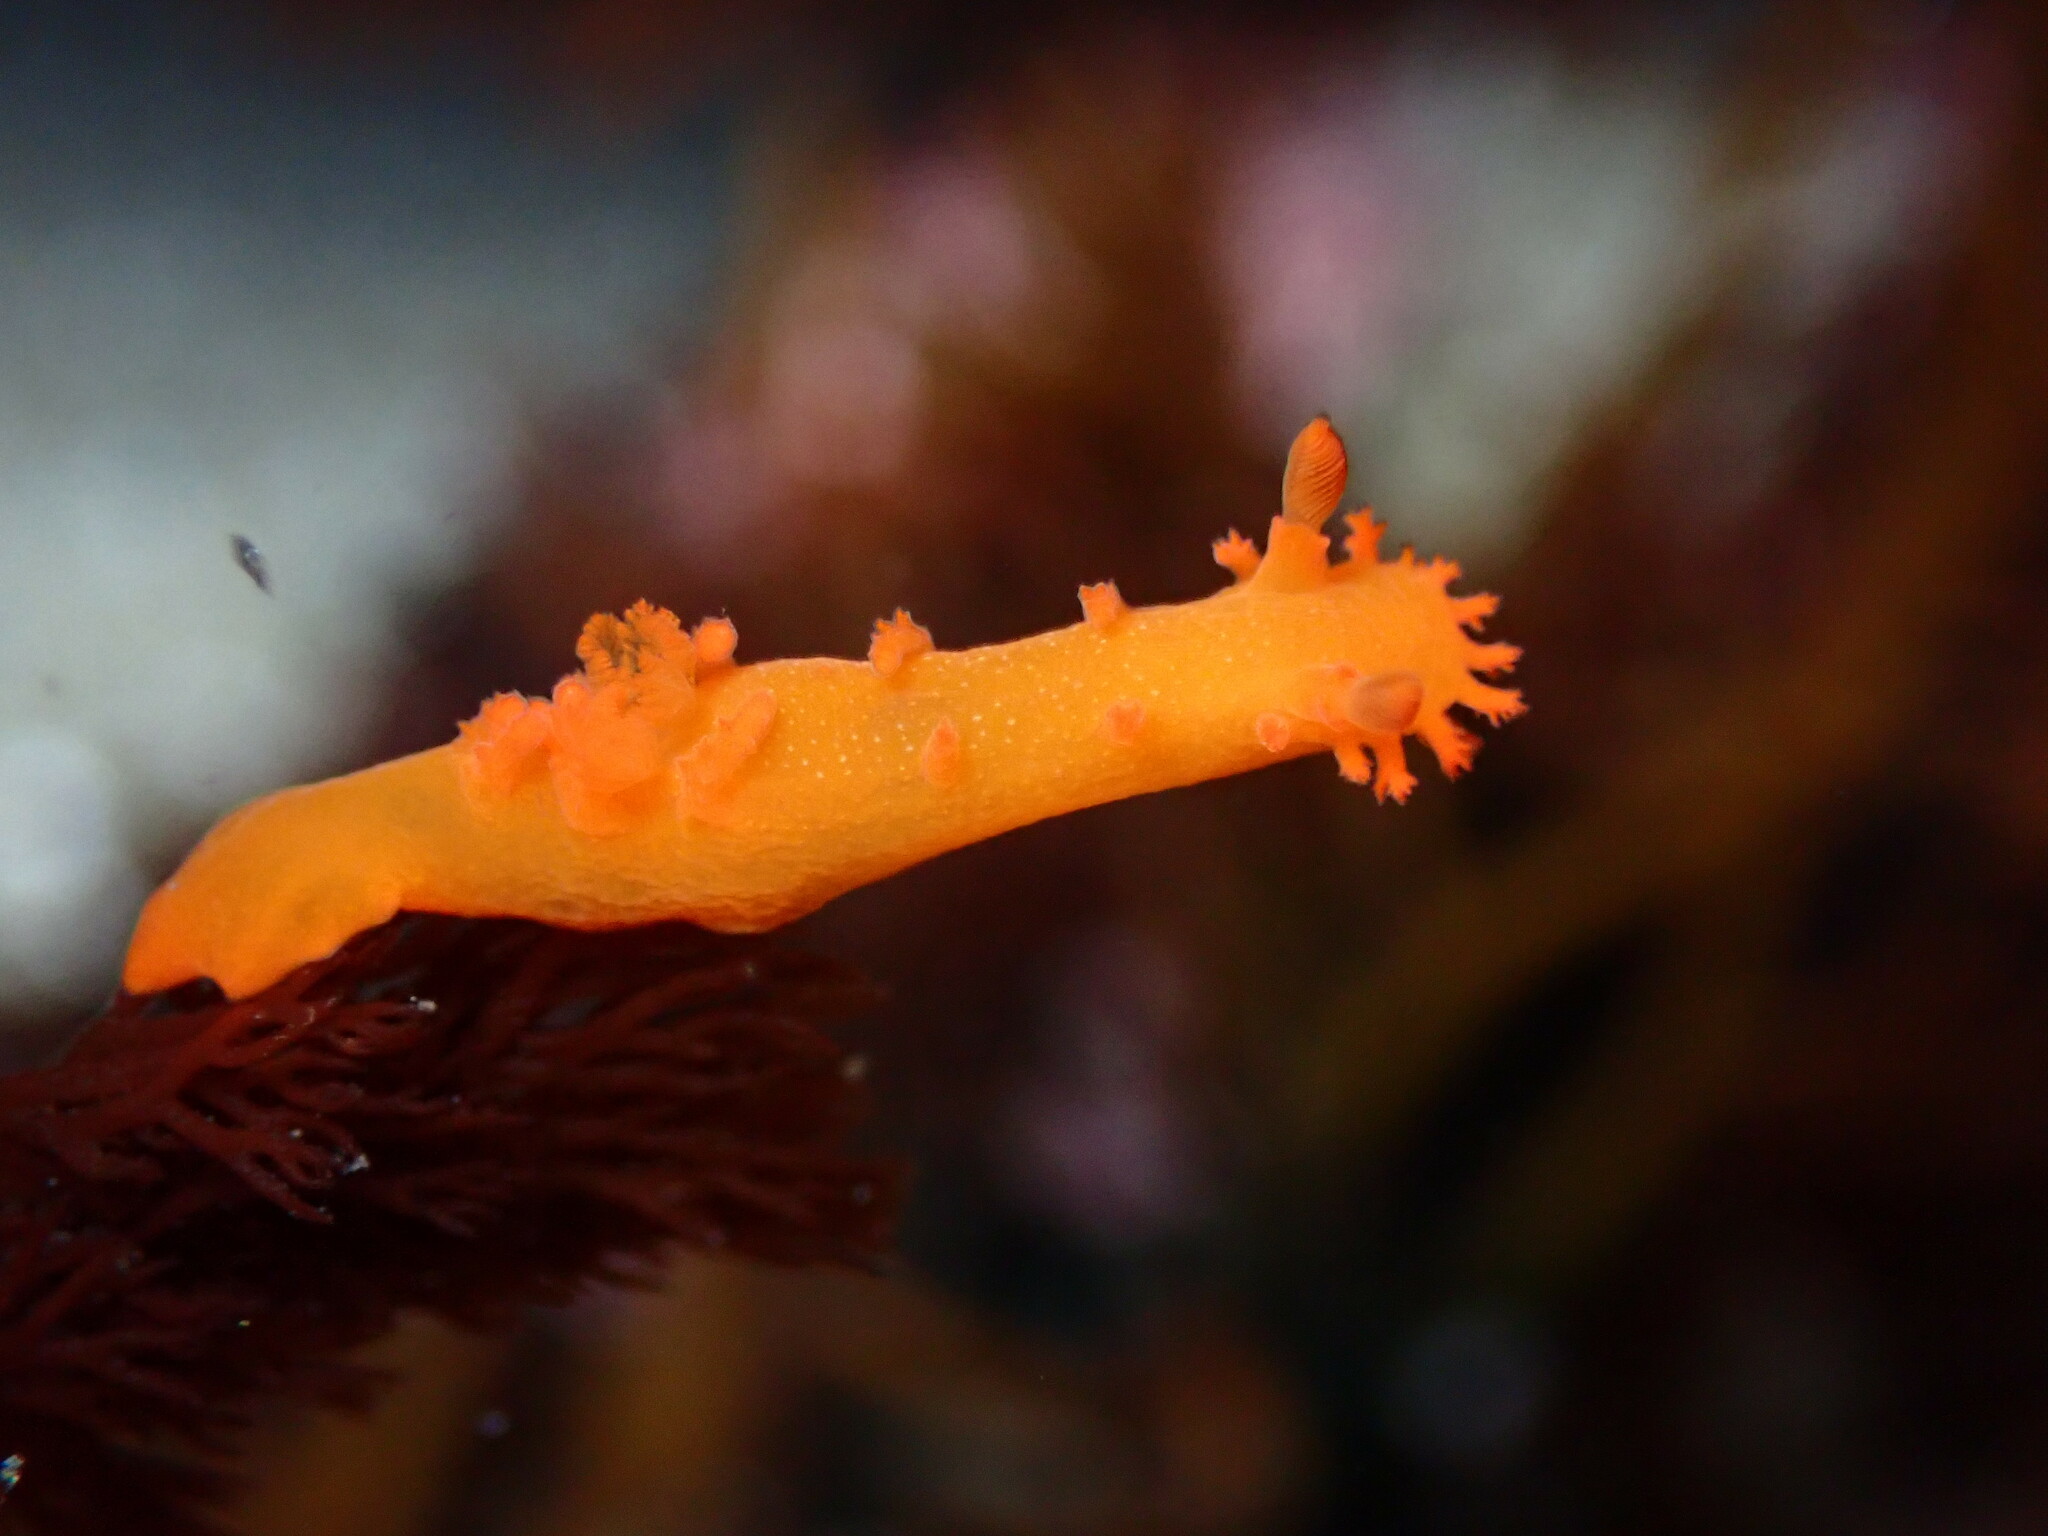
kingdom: Animalia
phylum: Mollusca
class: Gastropoda
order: Nudibranchia
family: Polyceridae
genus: Triopha
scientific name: Triopha maculata
